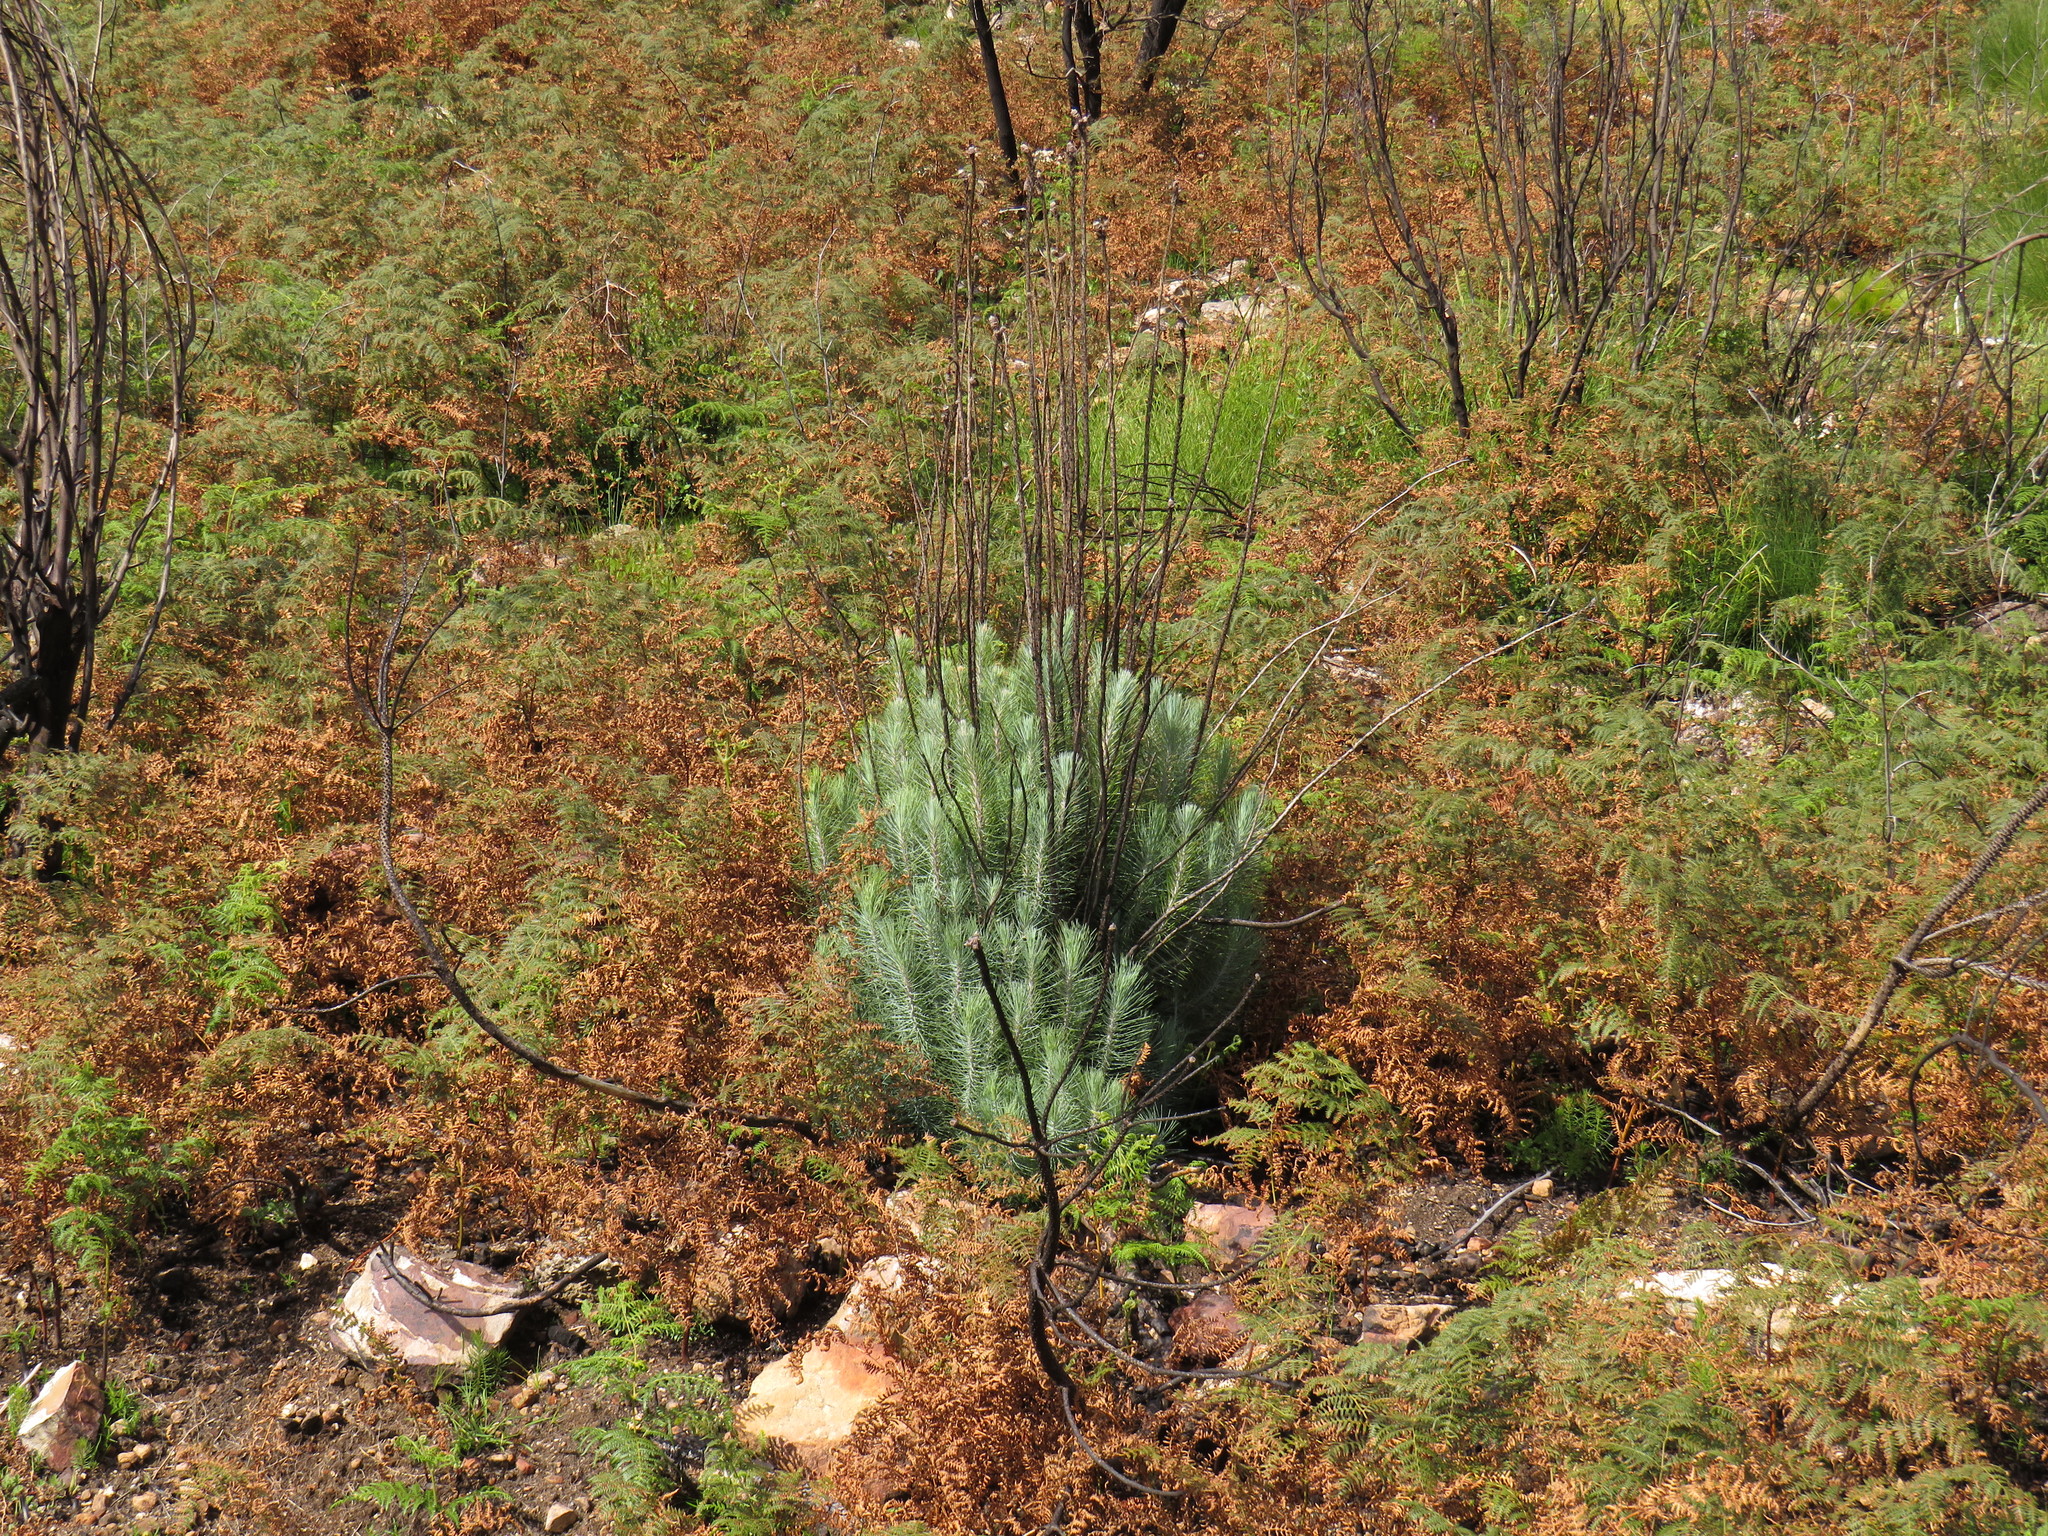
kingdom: Plantae
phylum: Tracheophyta
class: Pinopsida
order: Pinales
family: Pinaceae
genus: Pinus
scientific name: Pinus canariensis
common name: Canary islands pine
